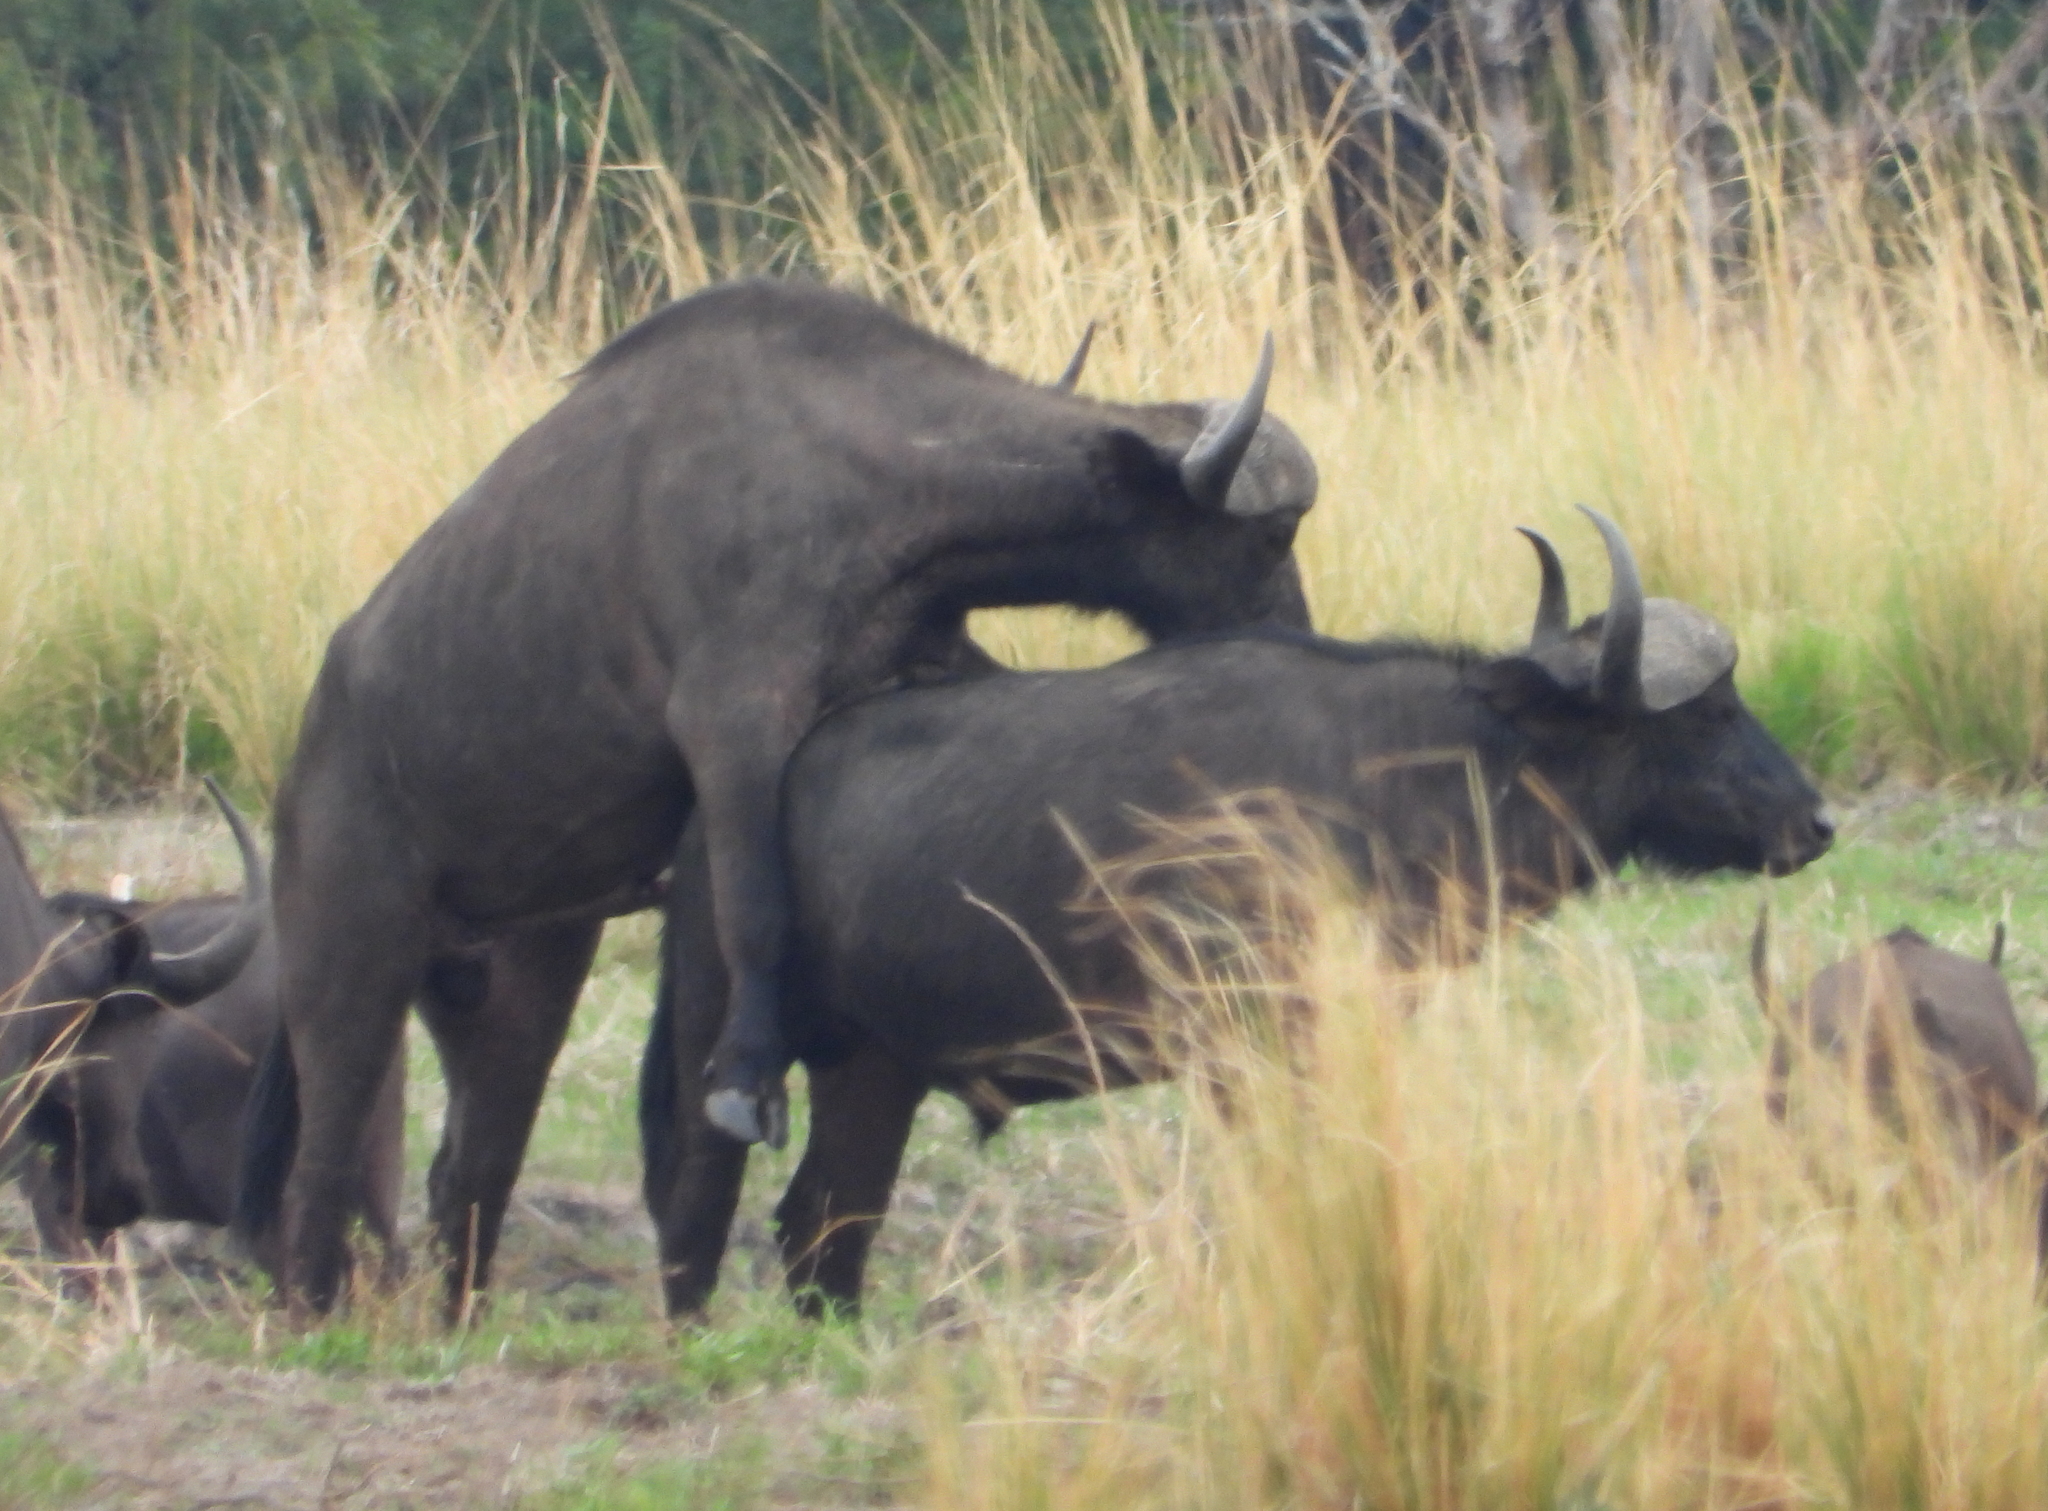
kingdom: Animalia
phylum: Chordata
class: Mammalia
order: Artiodactyla
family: Bovidae
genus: Syncerus
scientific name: Syncerus caffer
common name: African buffalo
